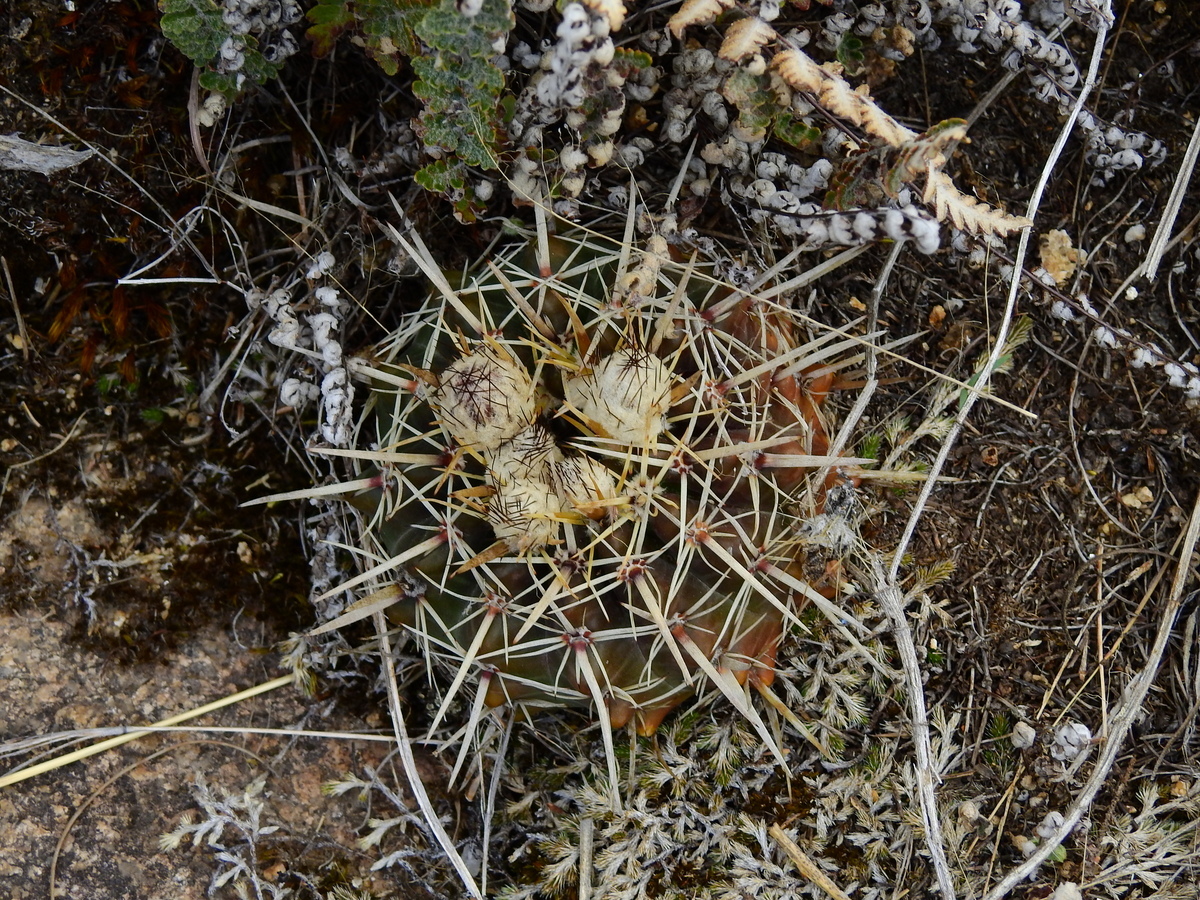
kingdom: Plantae
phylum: Tracheophyta
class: Magnoliopsida
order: Caryophyllales
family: Cactaceae
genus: Parodia
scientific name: Parodia mammulosa
